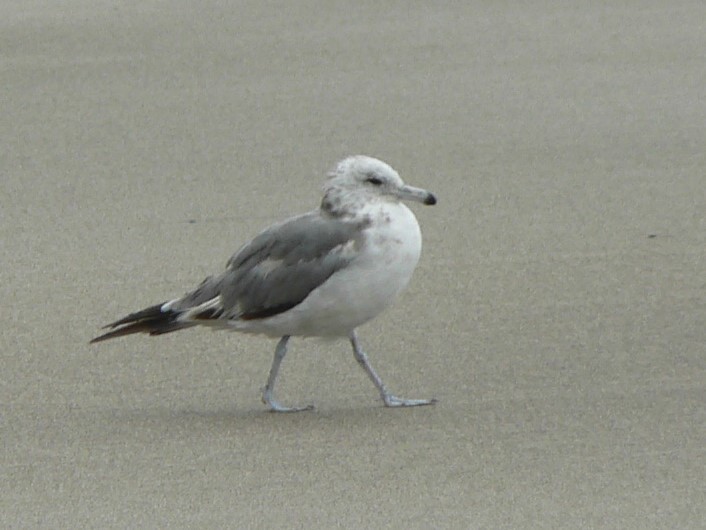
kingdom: Animalia
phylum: Chordata
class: Aves
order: Charadriiformes
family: Laridae
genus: Larus
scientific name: Larus californicus
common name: California gull
